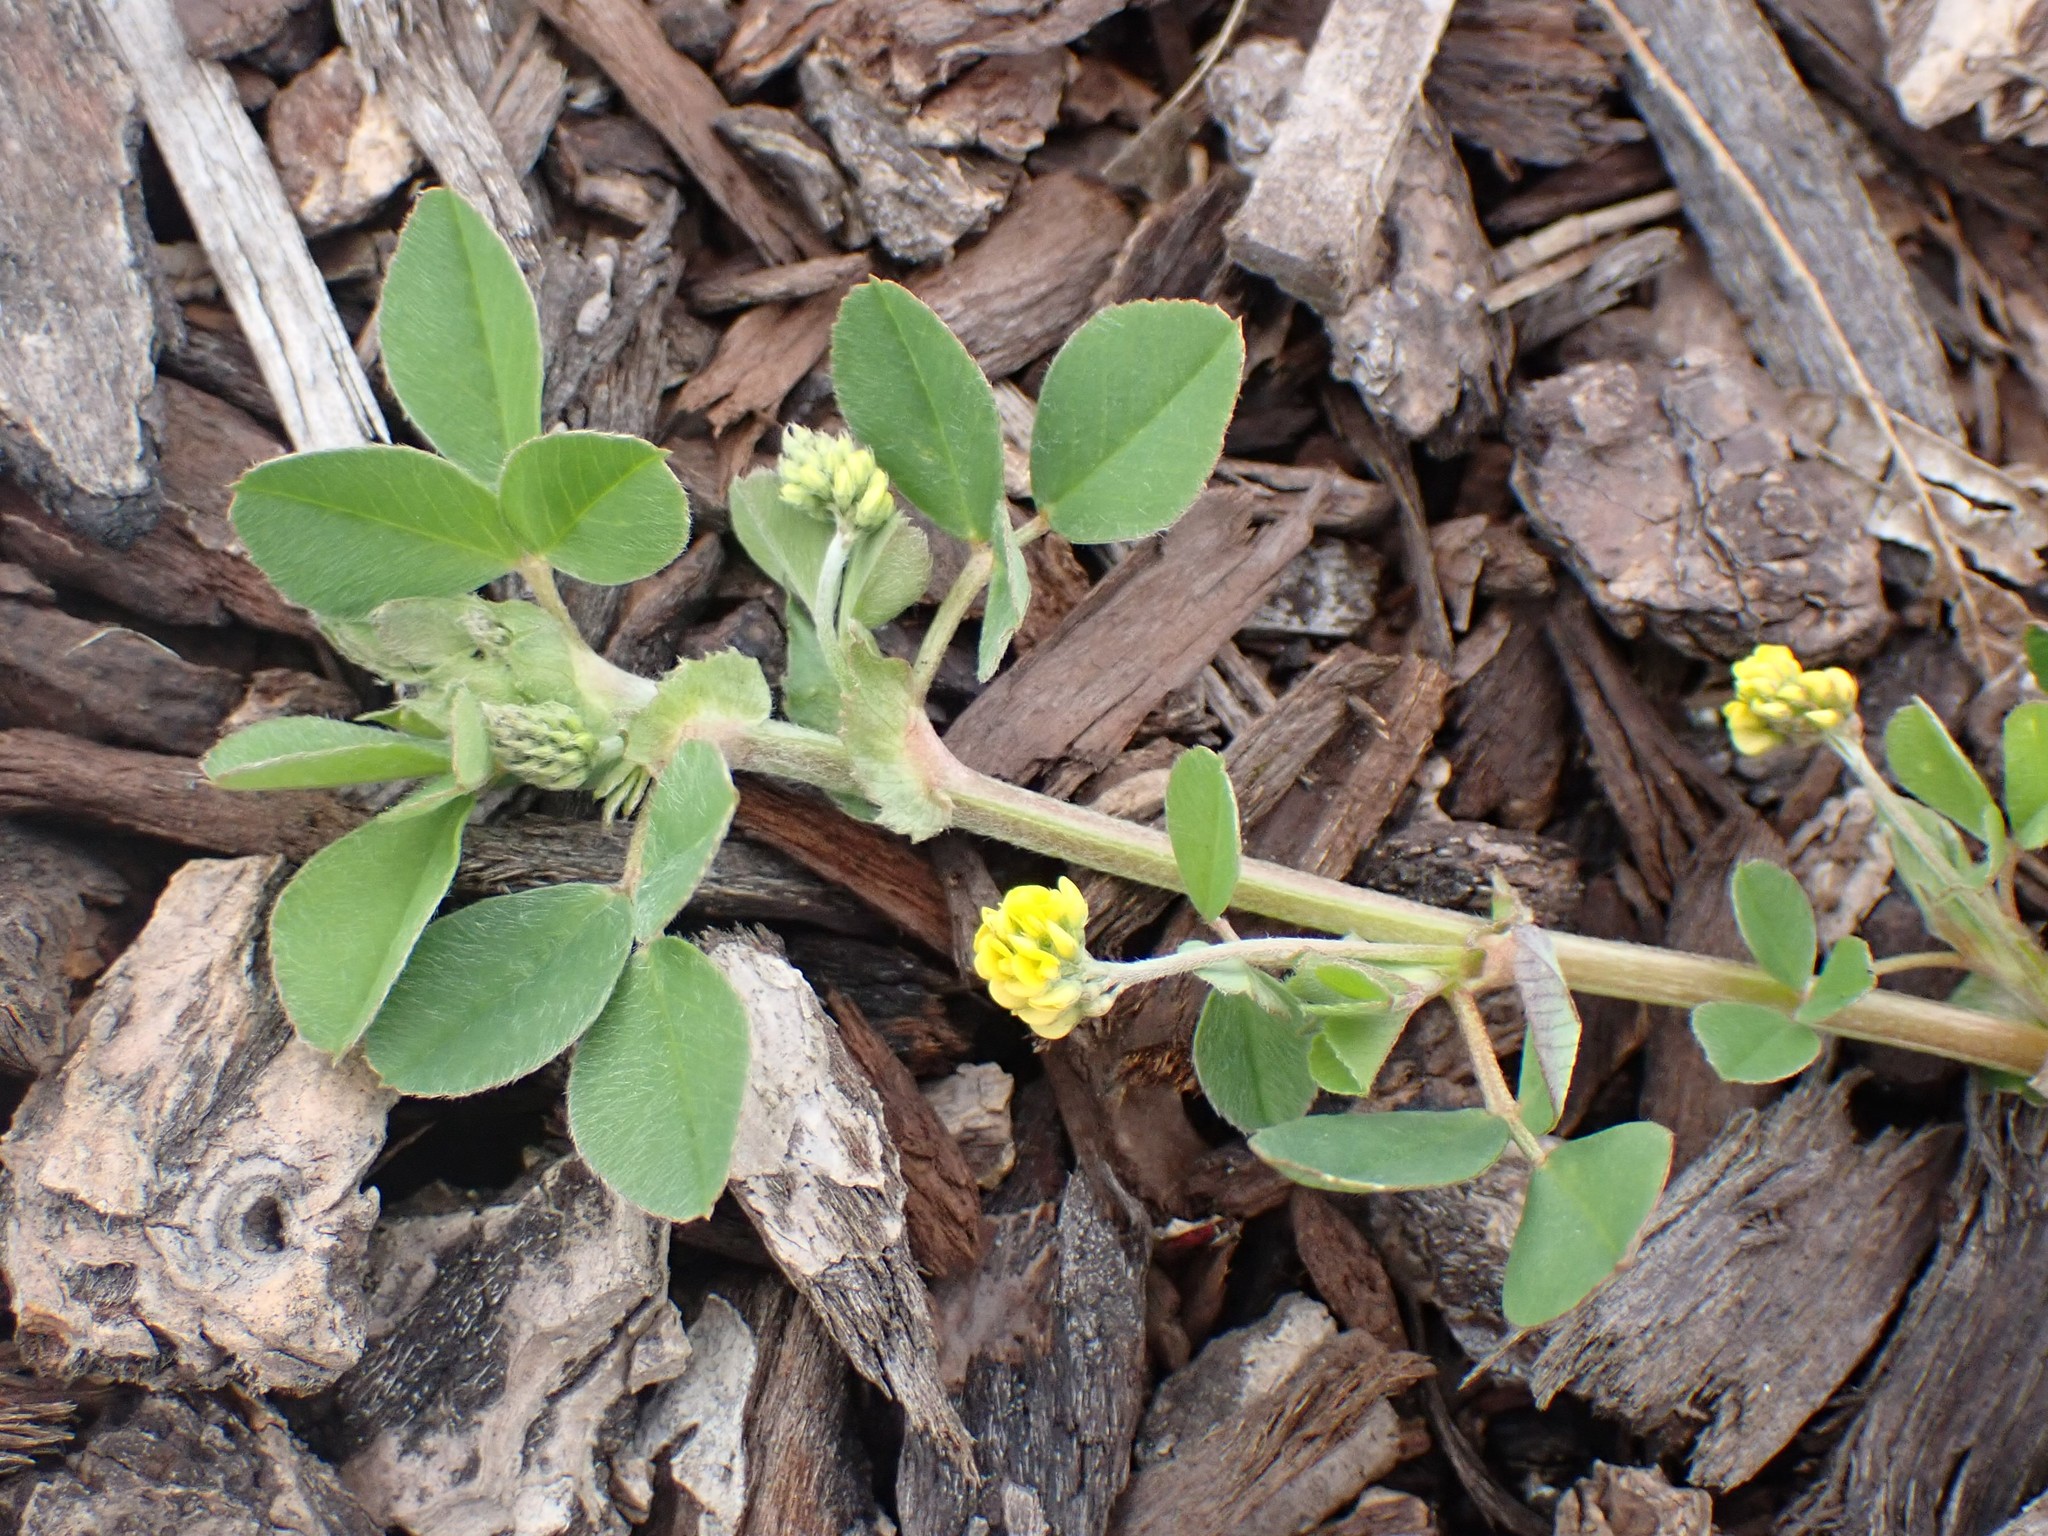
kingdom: Plantae
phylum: Tracheophyta
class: Magnoliopsida
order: Fabales
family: Fabaceae
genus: Medicago
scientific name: Medicago lupulina
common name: Black medick
